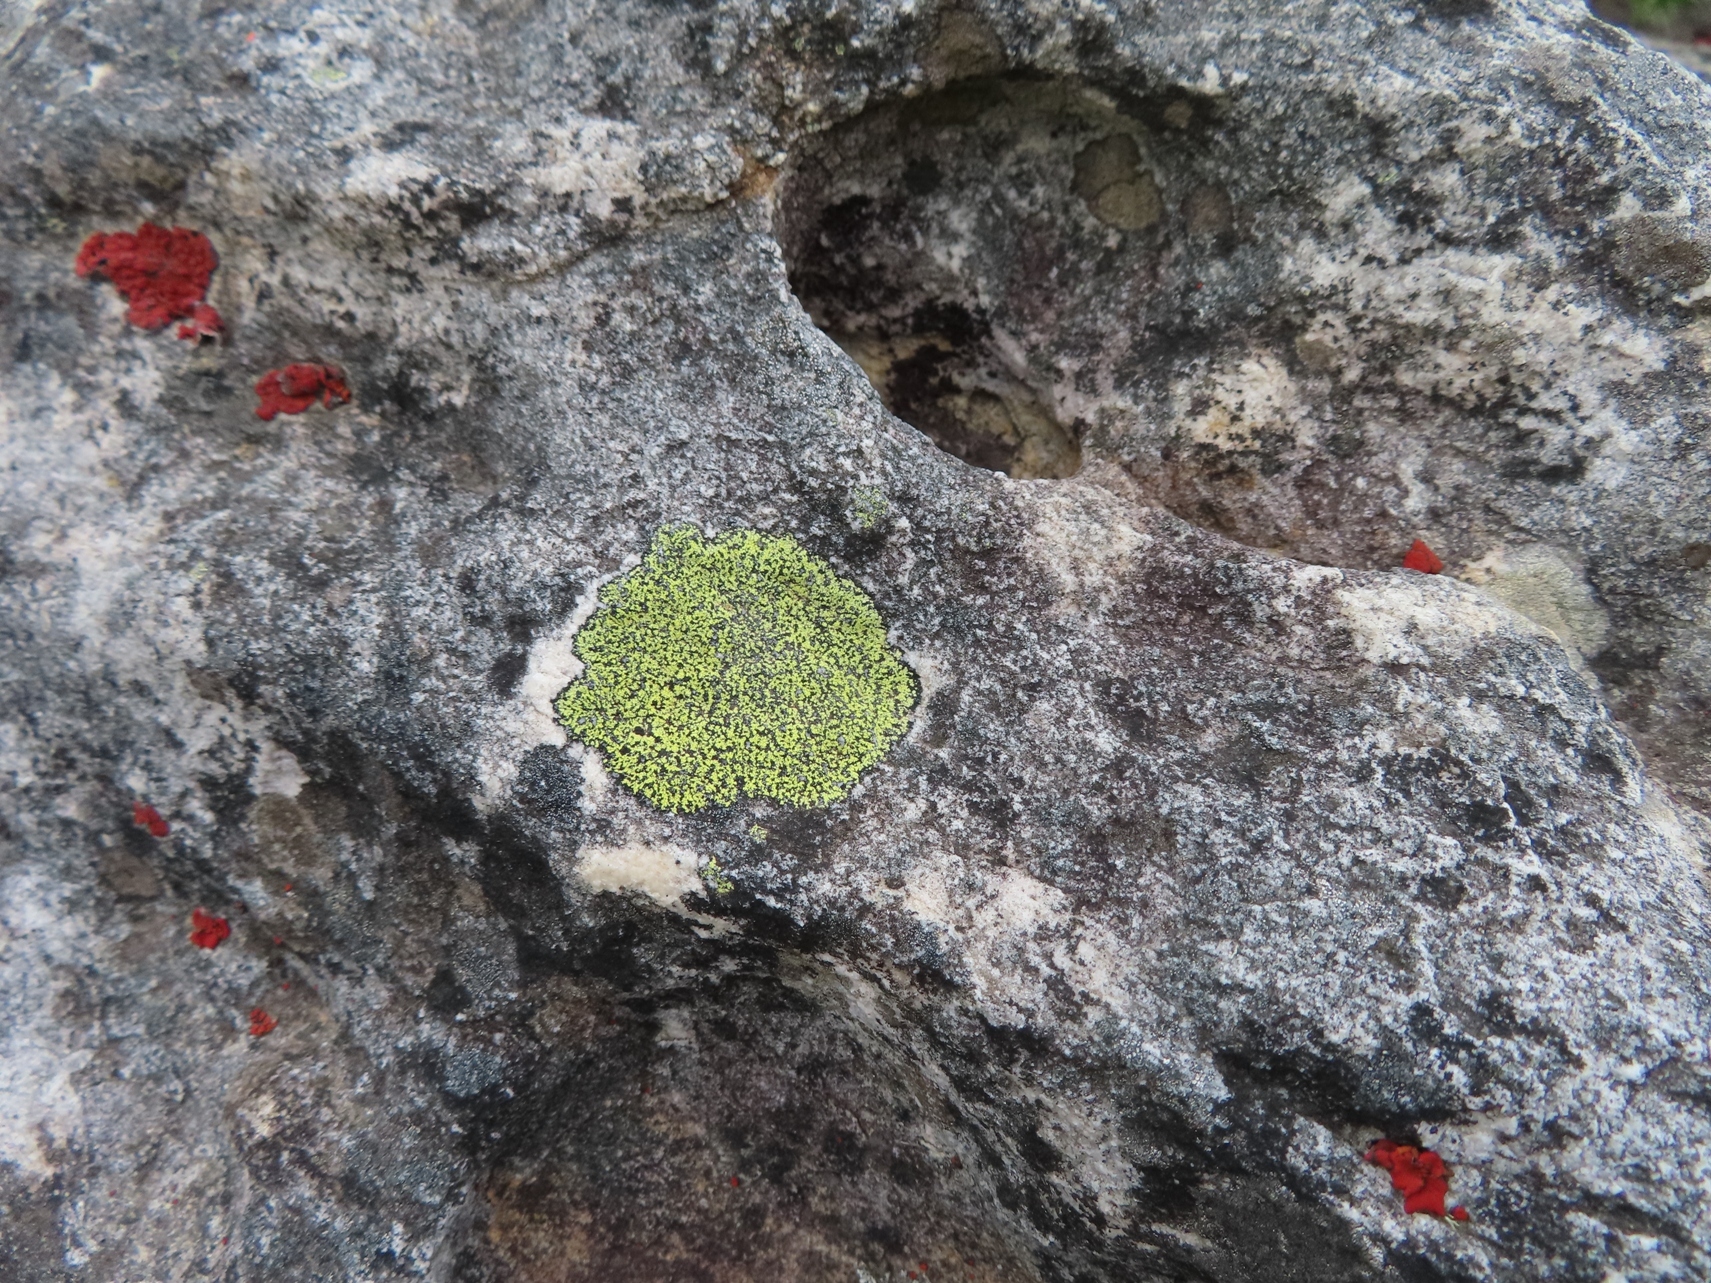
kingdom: Fungi
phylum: Ascomycota
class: Lecanoromycetes
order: Rhizocarpales
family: Rhizocarpaceae
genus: Rhizocarpon
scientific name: Rhizocarpon
